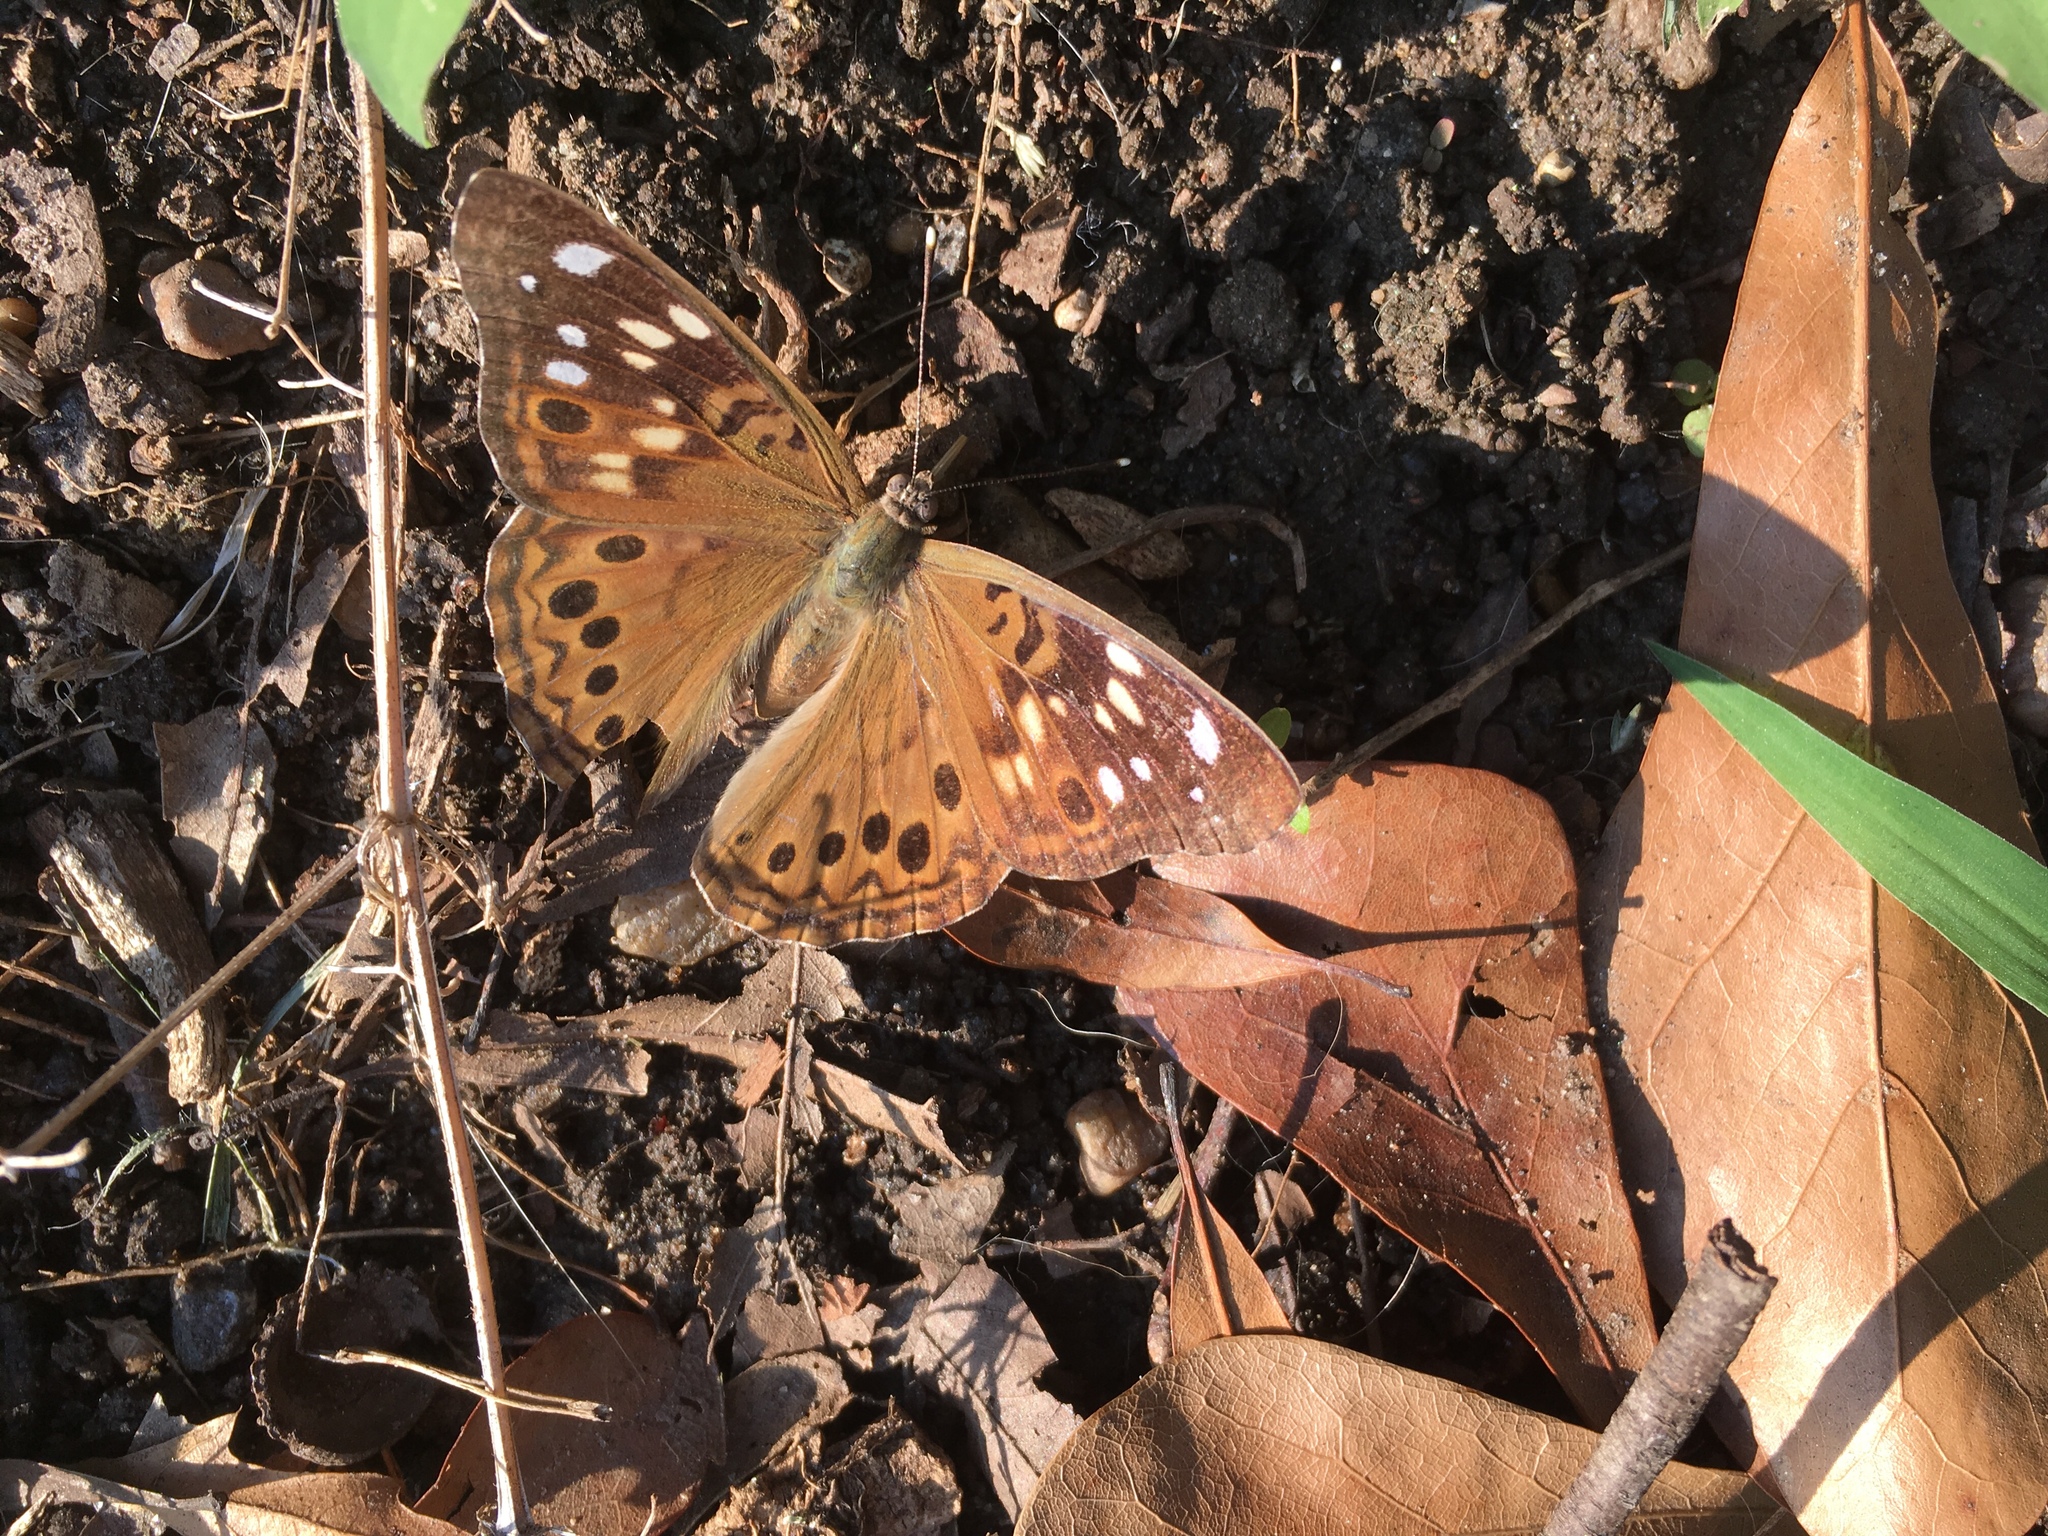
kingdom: Animalia
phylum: Arthropoda
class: Insecta
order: Lepidoptera
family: Nymphalidae
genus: Asterocampa
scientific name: Asterocampa celtis
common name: Hackberry emperor
